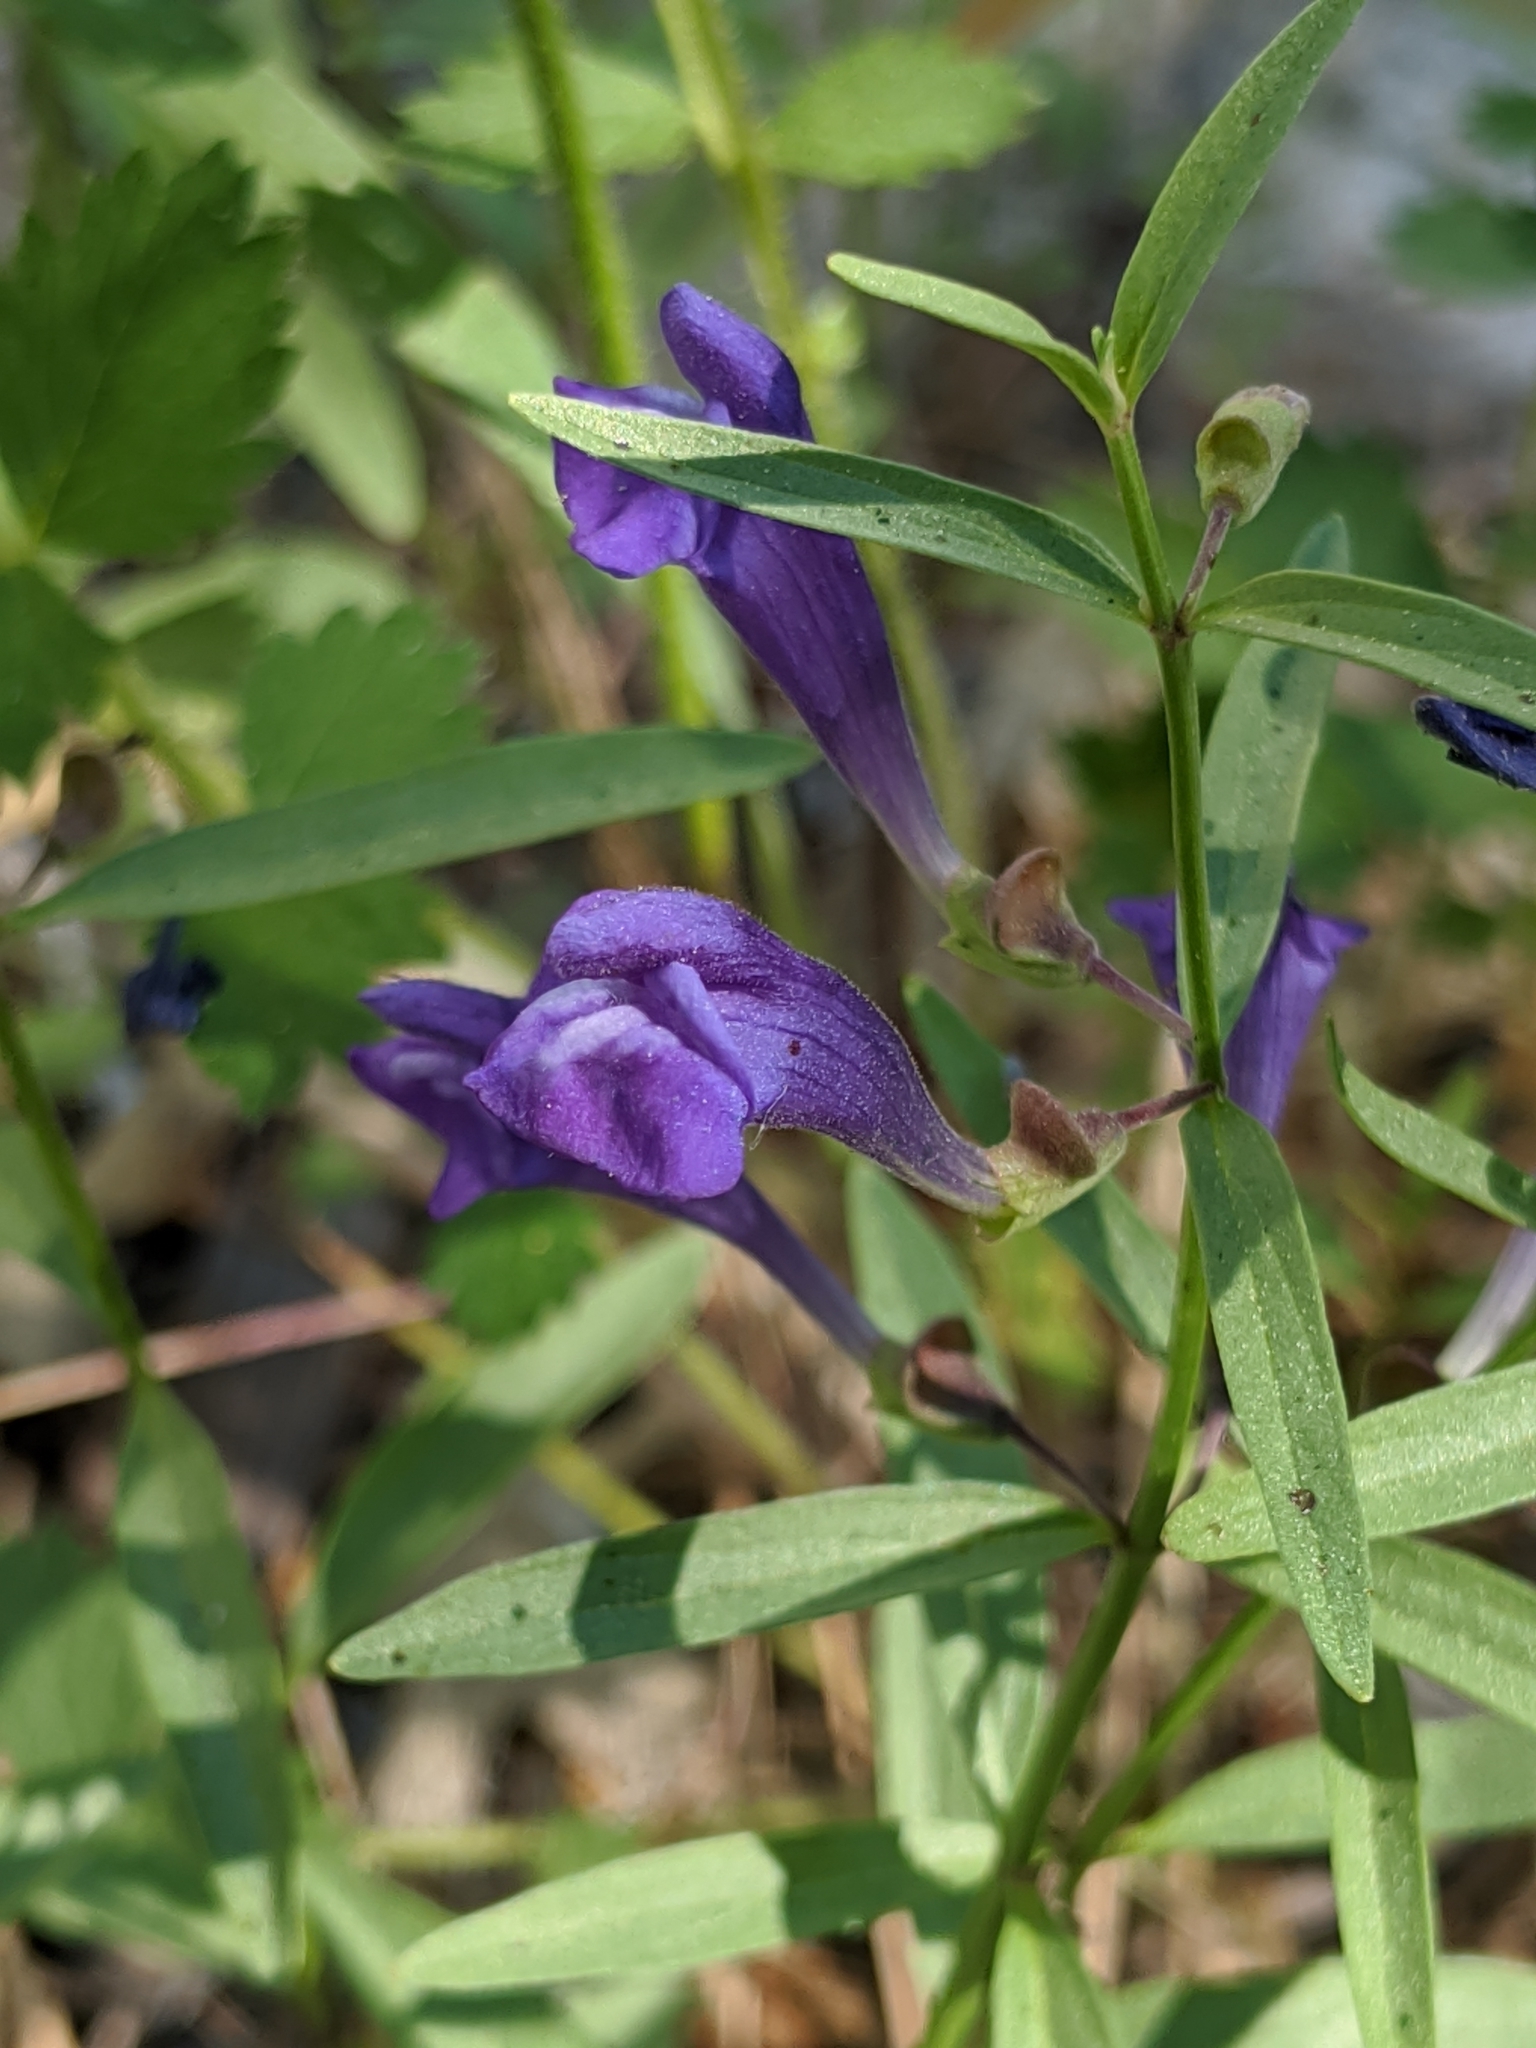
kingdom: Plantae
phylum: Tracheophyta
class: Magnoliopsida
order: Lamiales
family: Lamiaceae
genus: Scutellaria
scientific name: Scutellaria siphocampyloides
